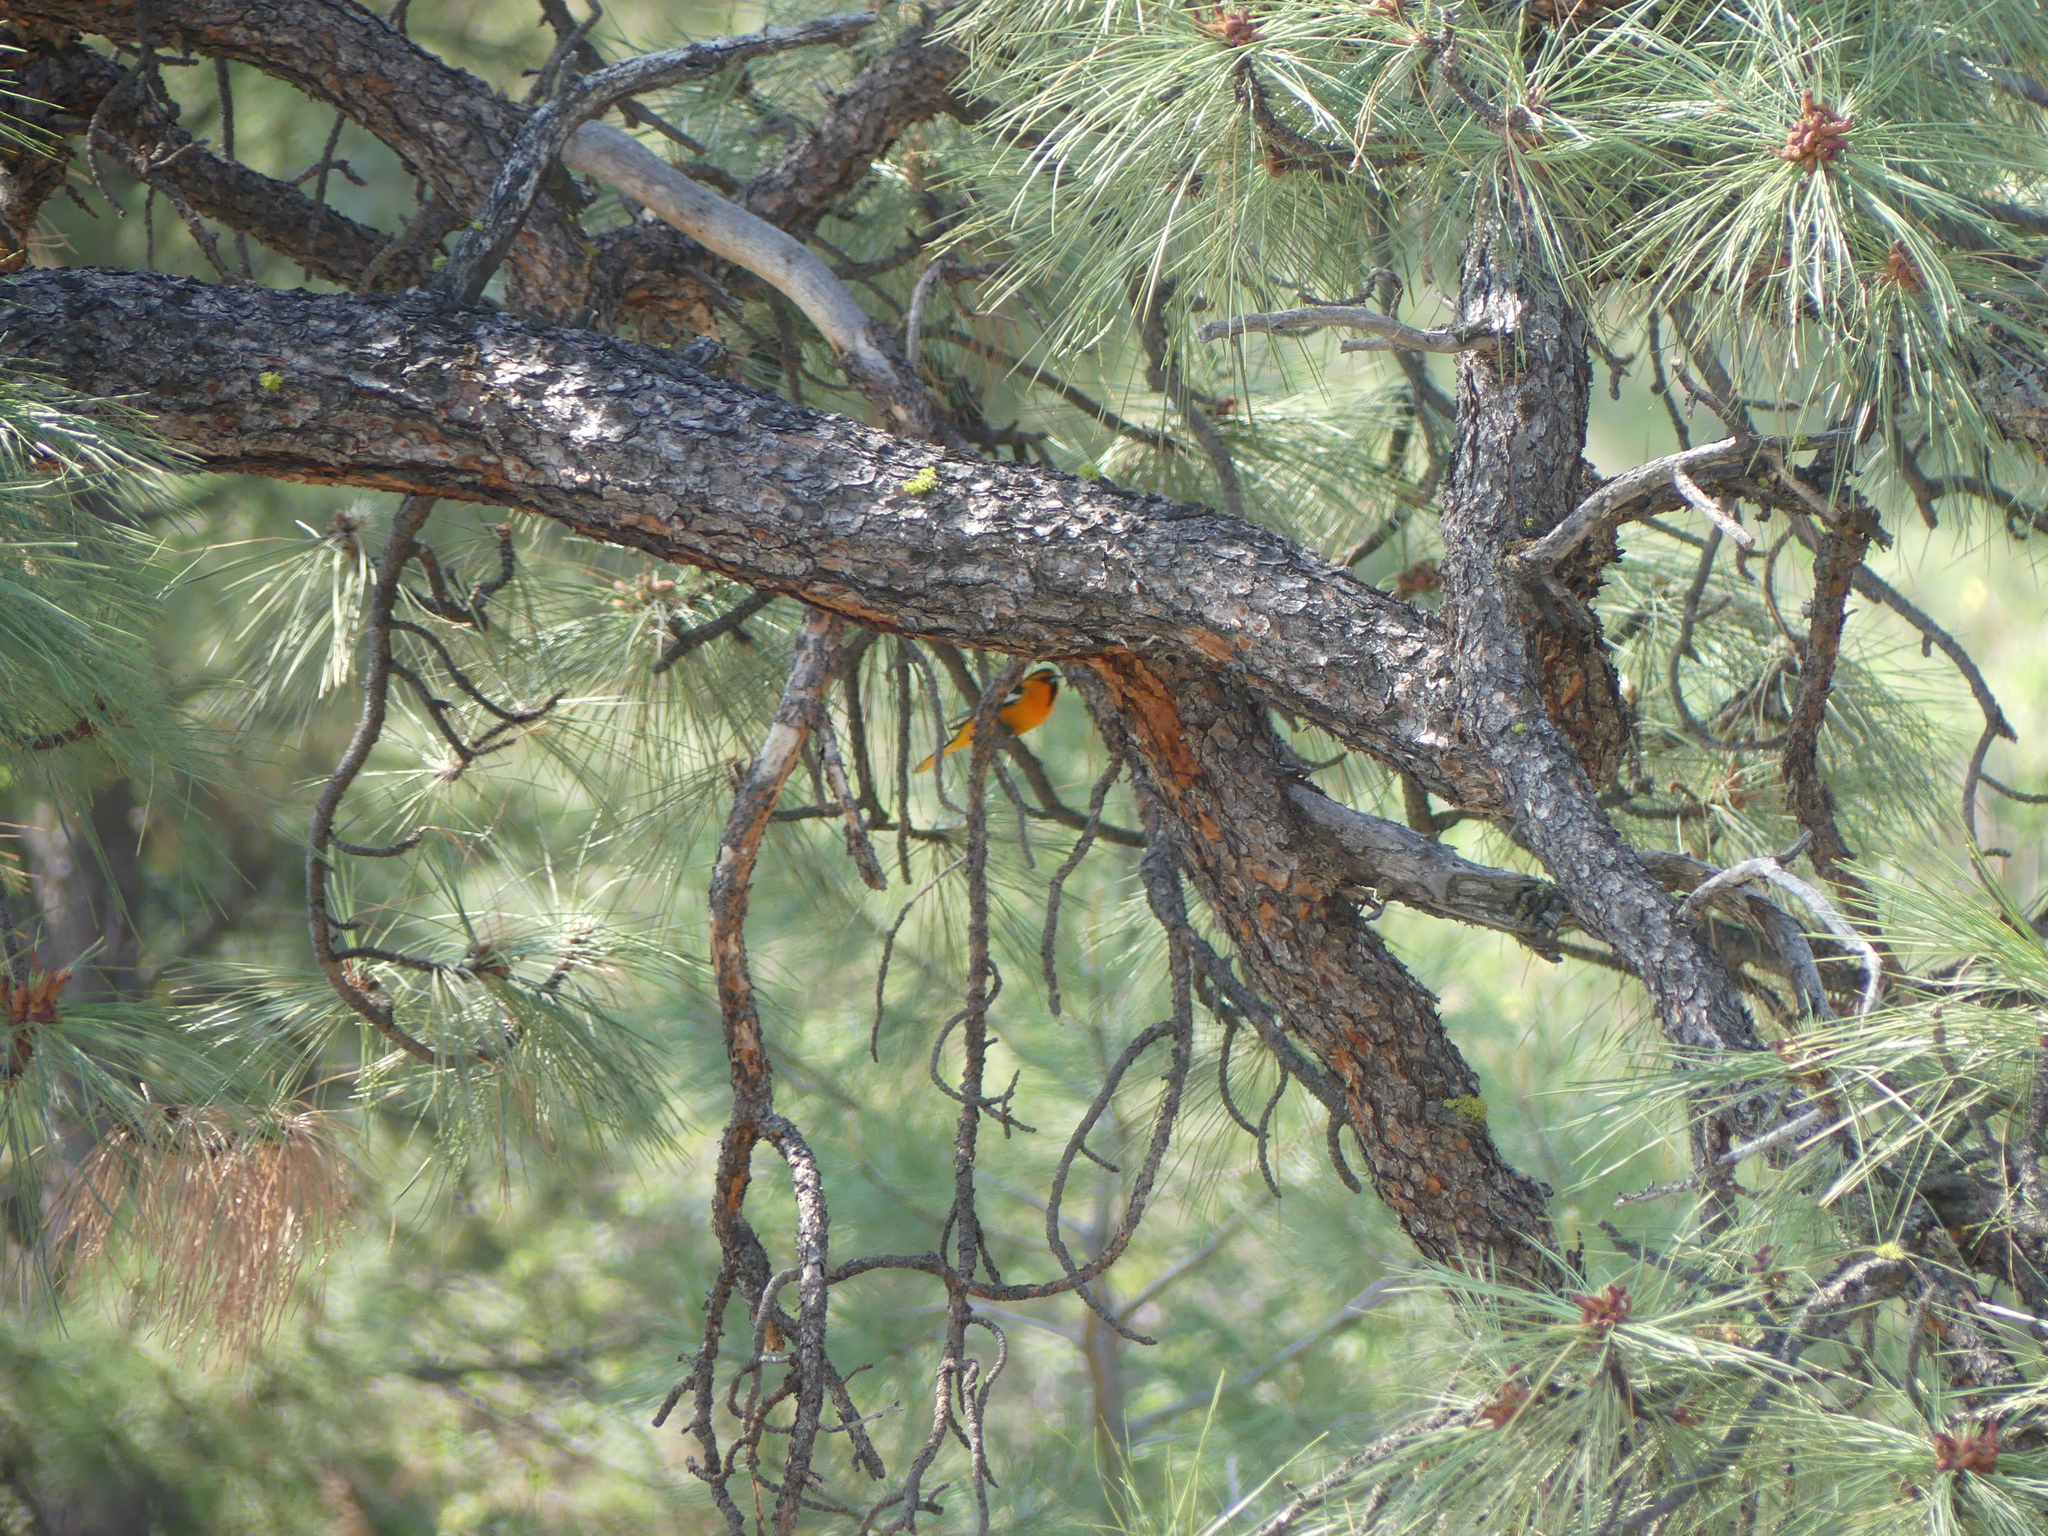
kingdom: Animalia
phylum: Chordata
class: Aves
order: Passeriformes
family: Icteridae
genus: Icterus
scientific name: Icterus bullockii
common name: Bullock's oriole
